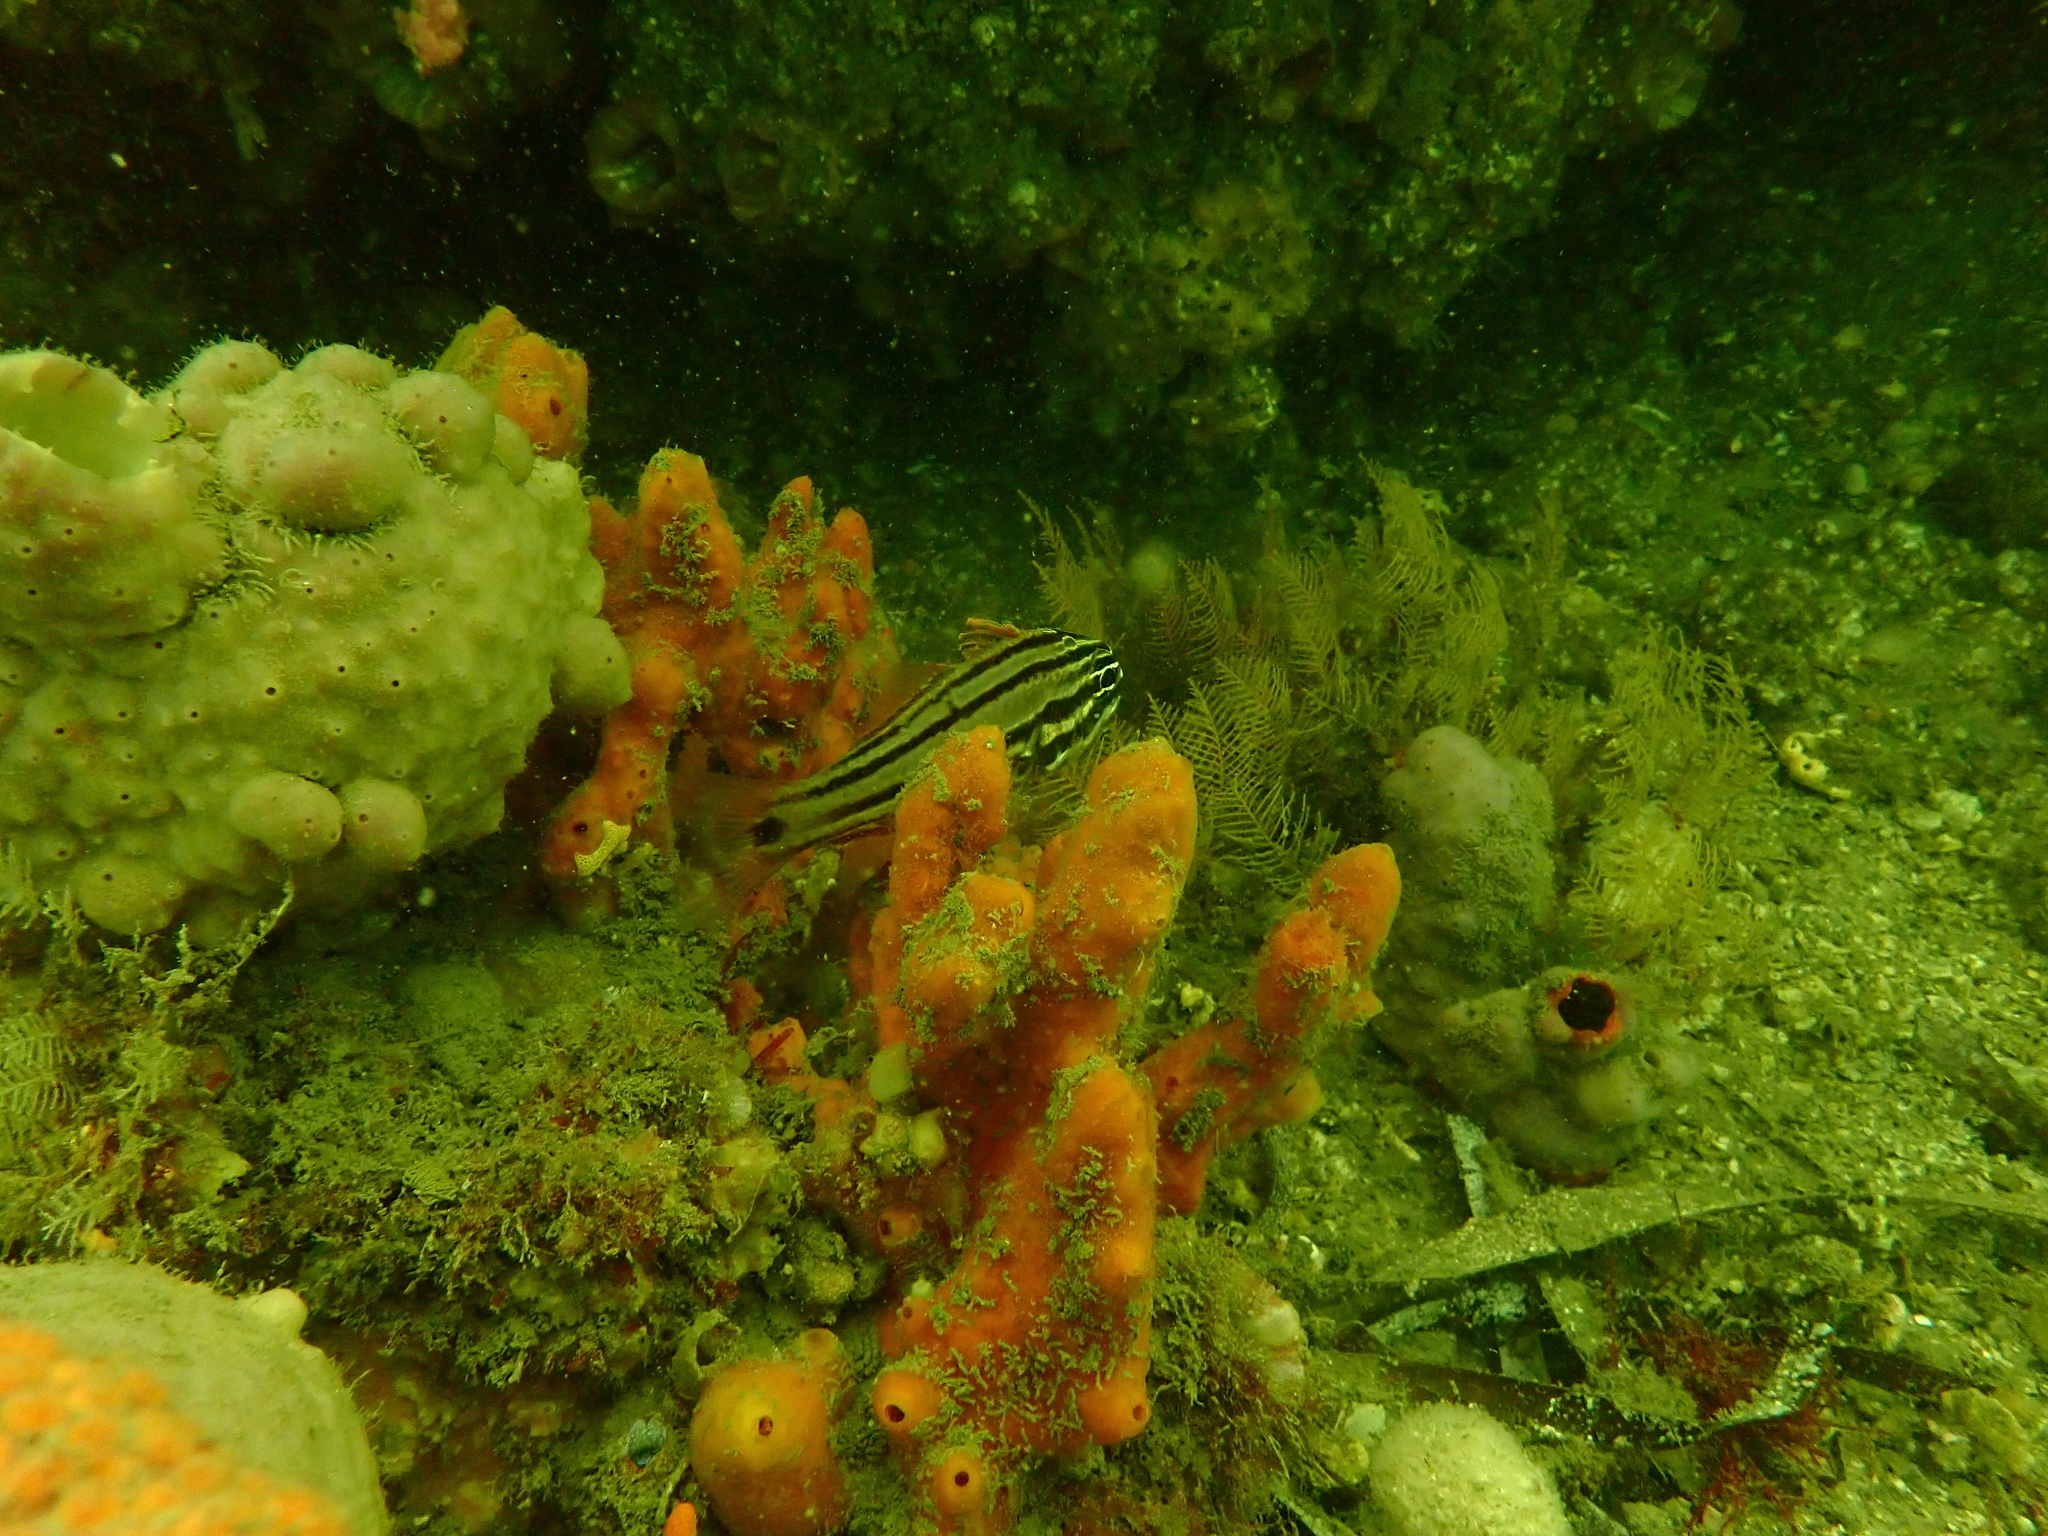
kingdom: Animalia
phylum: Chordata
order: Perciformes
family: Apogonidae
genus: Ostorhinchus
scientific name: Ostorhinchus limenus
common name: Four-banded soldierfish
